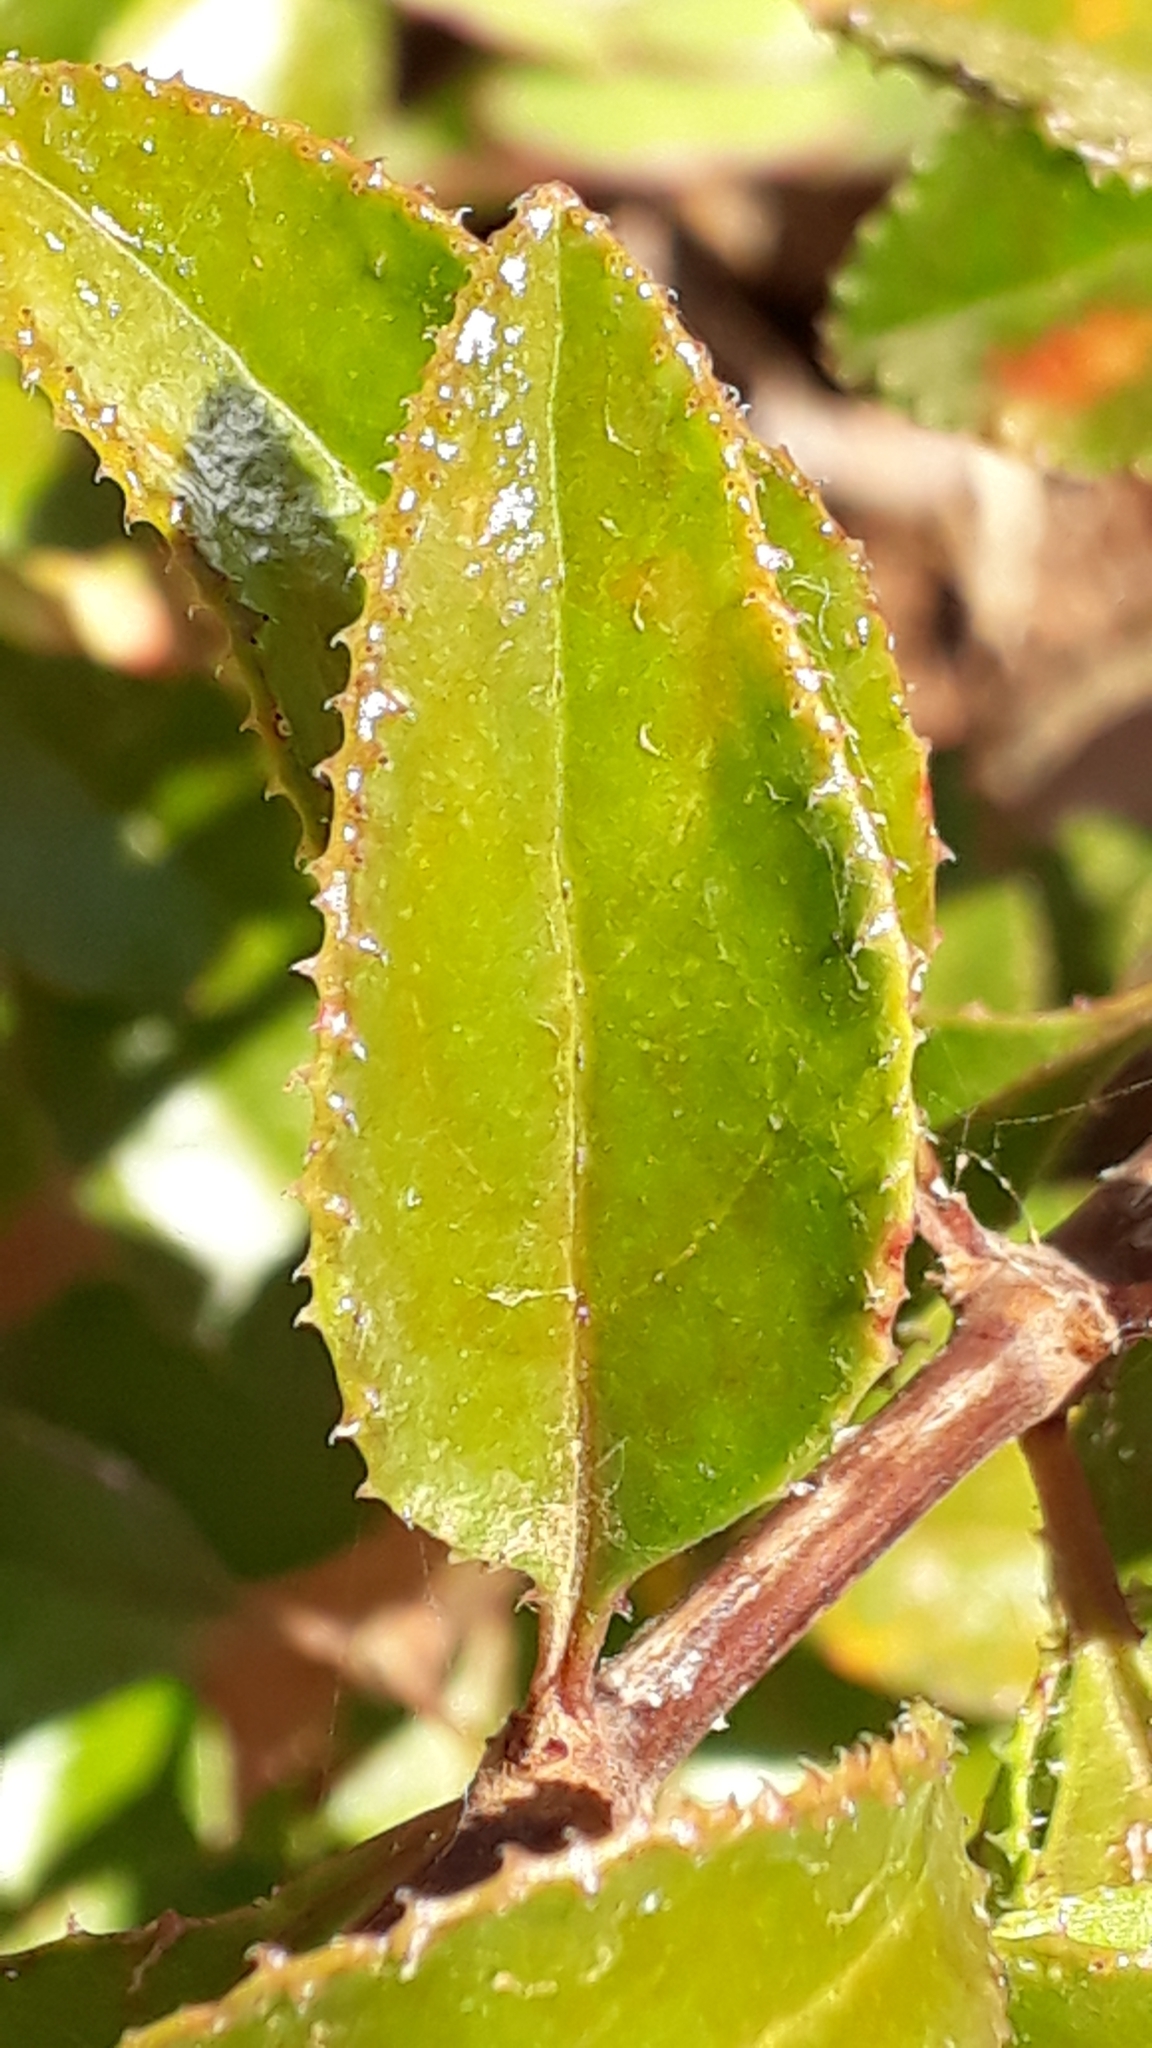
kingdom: Plantae
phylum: Tracheophyta
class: Magnoliopsida
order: Gentianales
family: Rubiaceae
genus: Rubia
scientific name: Rubia fruticosa
